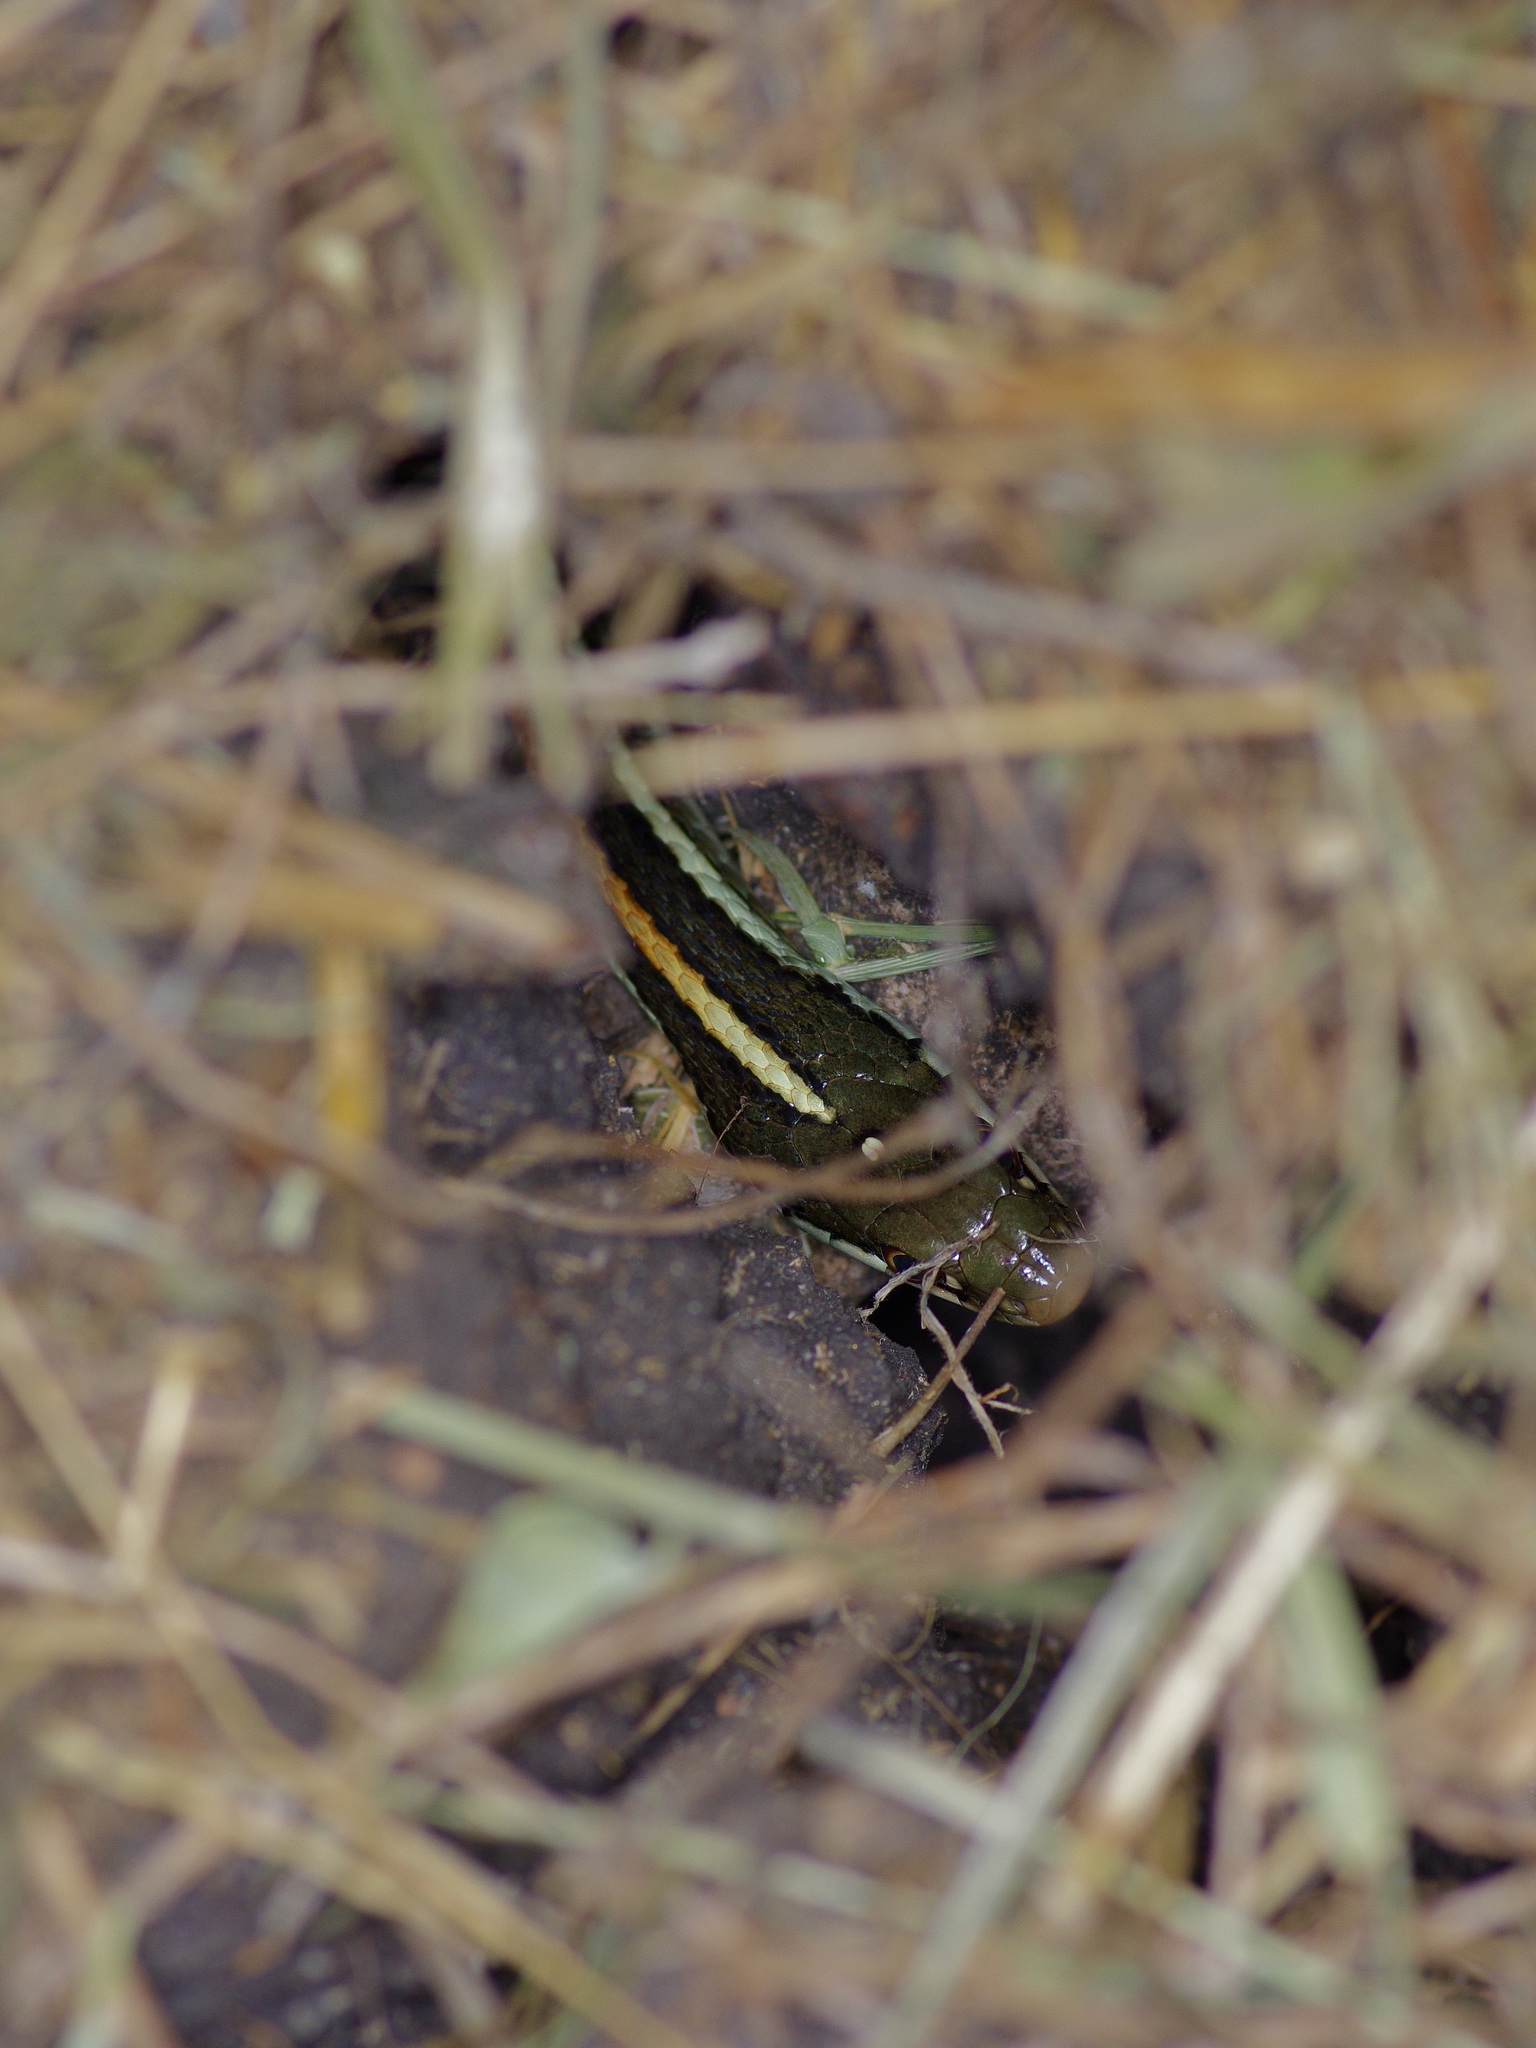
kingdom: Animalia
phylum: Chordata
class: Squamata
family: Colubridae
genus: Thamnophis
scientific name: Thamnophis proximus
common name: Western ribbon snake
